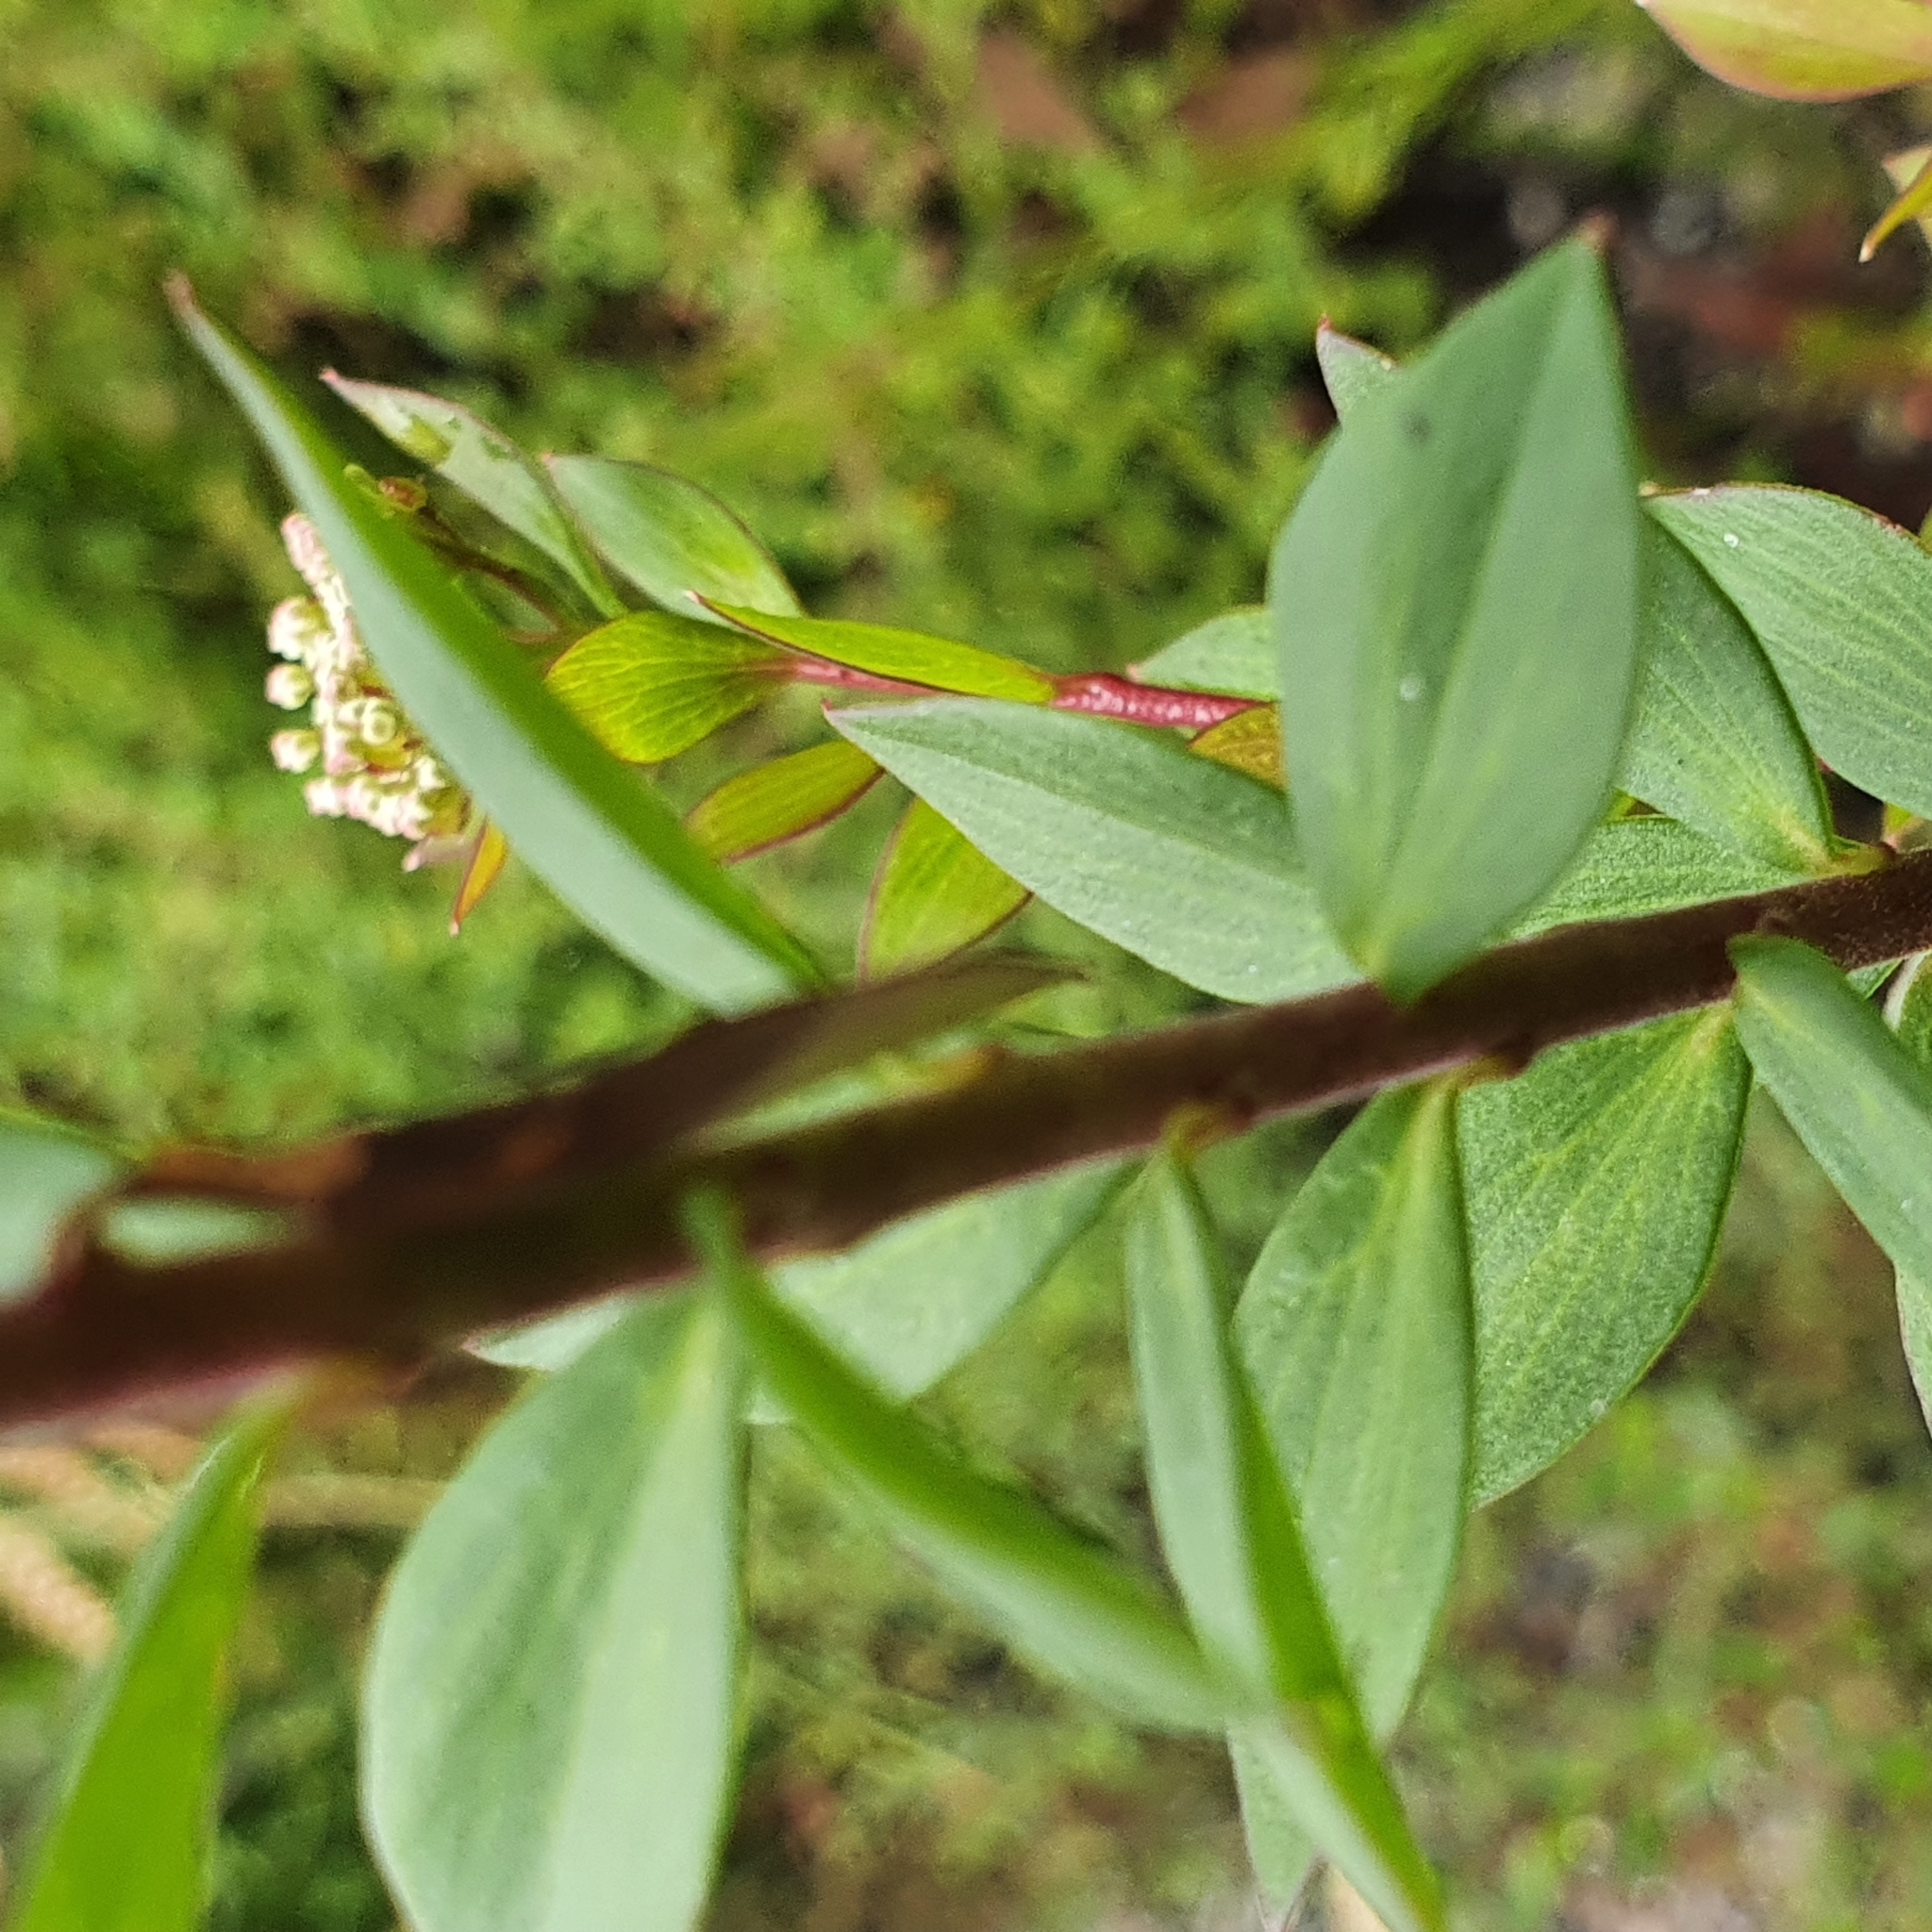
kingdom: Plantae
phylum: Tracheophyta
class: Magnoliopsida
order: Apiales
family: Apiaceae
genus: Platysace
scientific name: Platysace lanceolata
